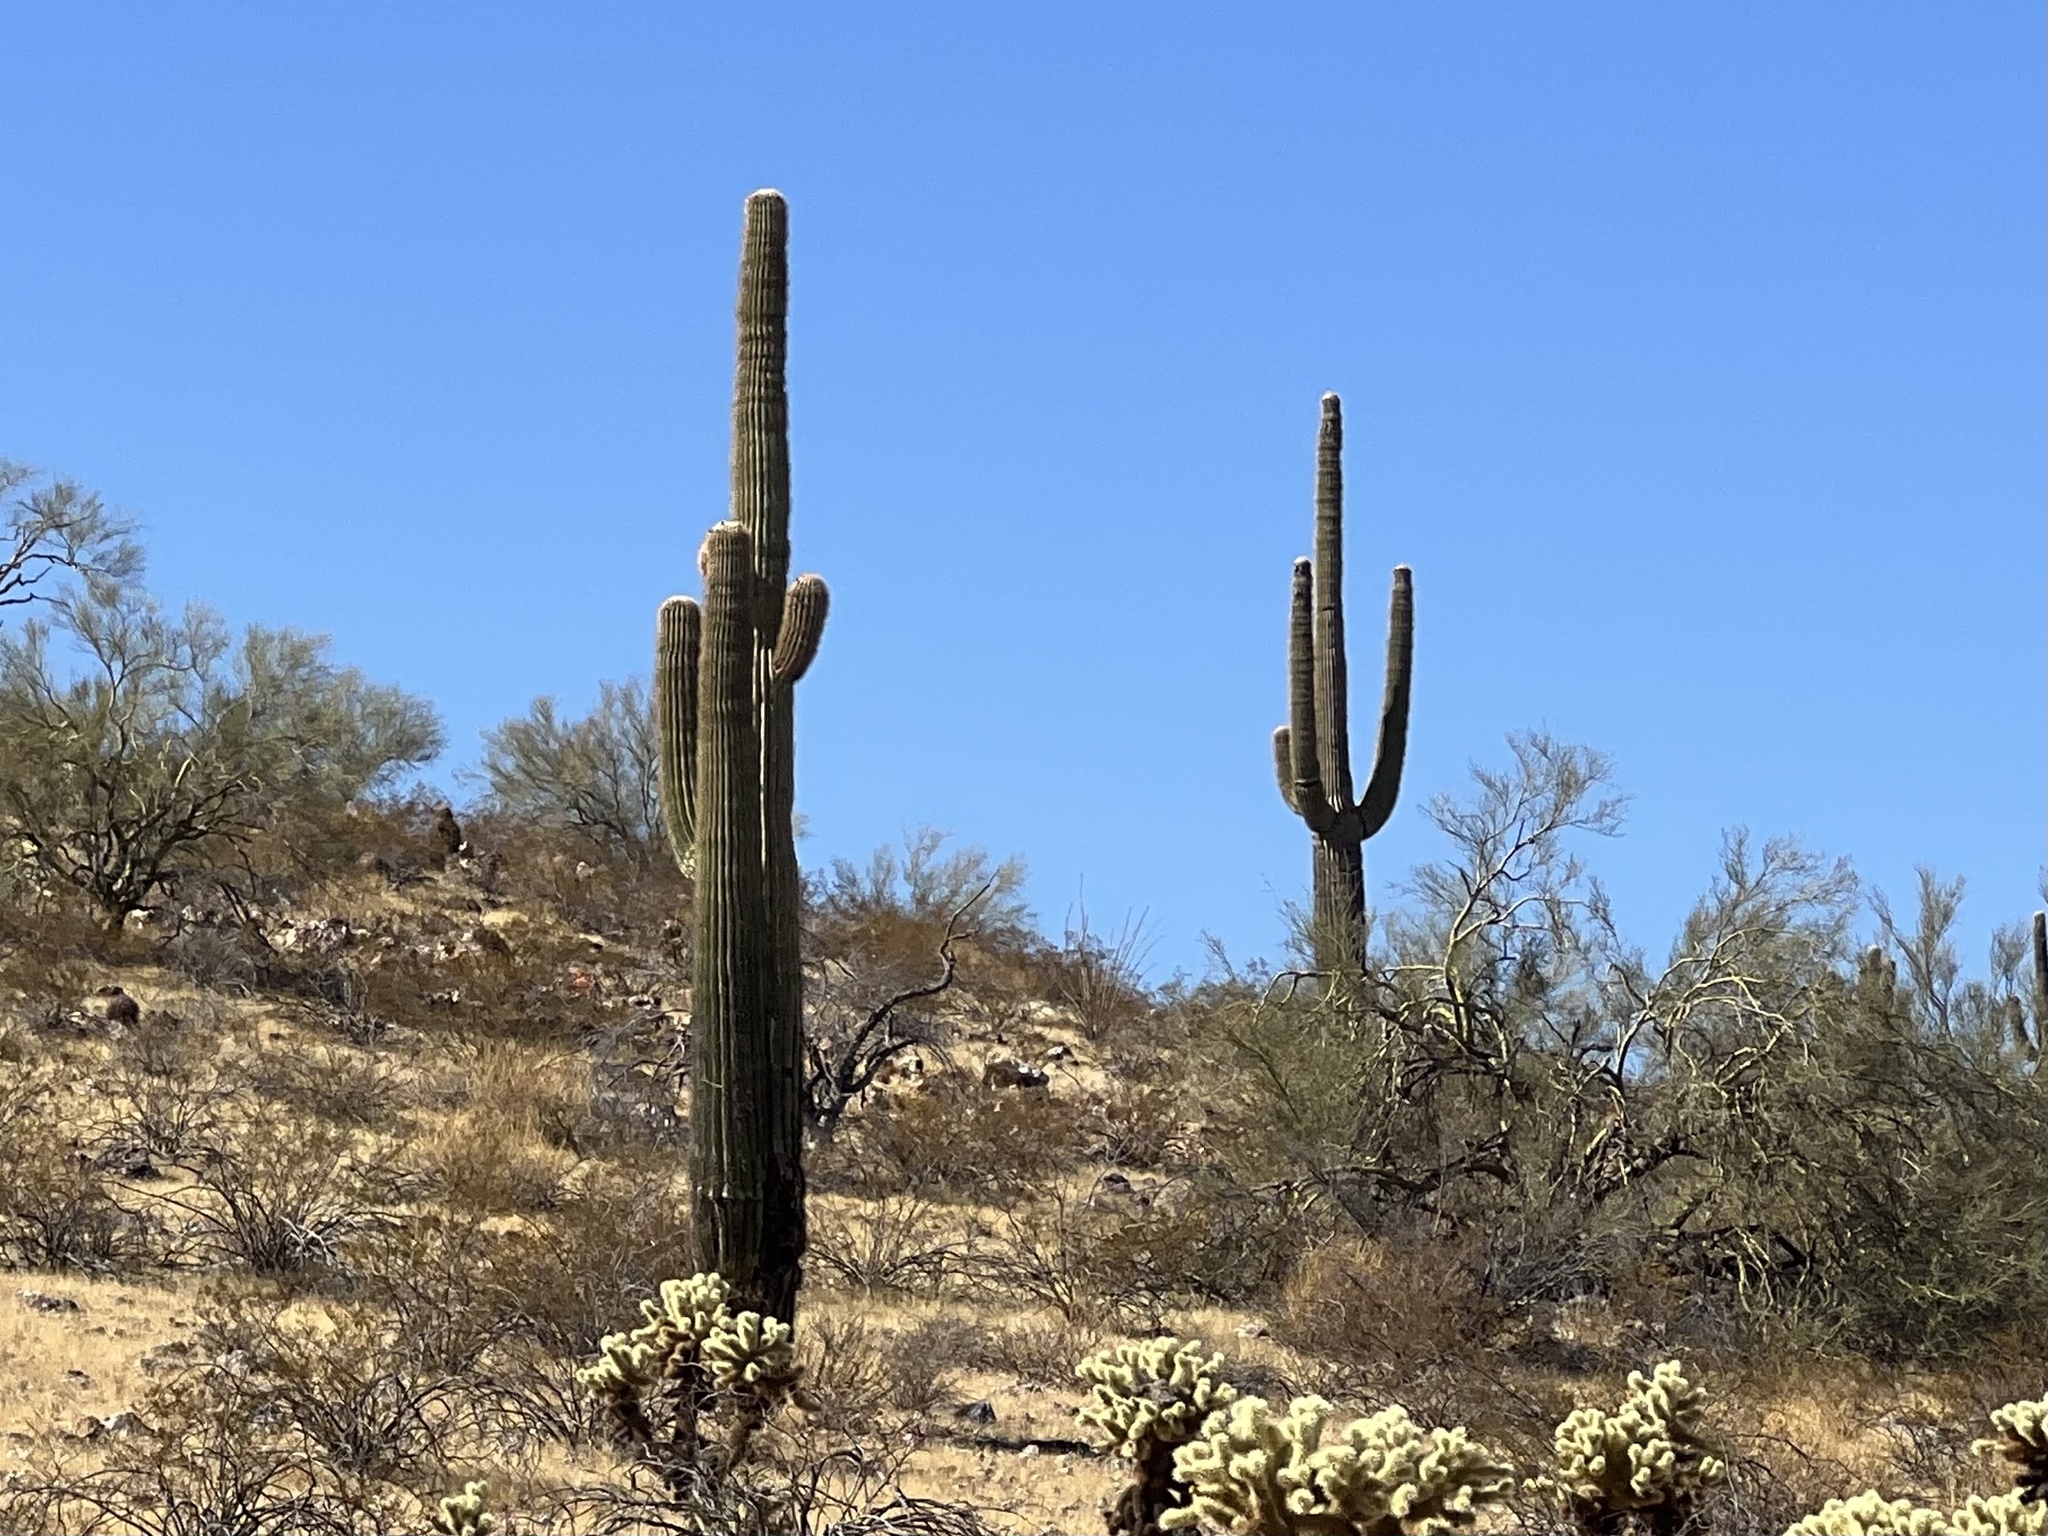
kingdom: Plantae
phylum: Tracheophyta
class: Magnoliopsida
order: Caryophyllales
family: Cactaceae
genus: Carnegiea
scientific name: Carnegiea gigantea
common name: Saguaro
